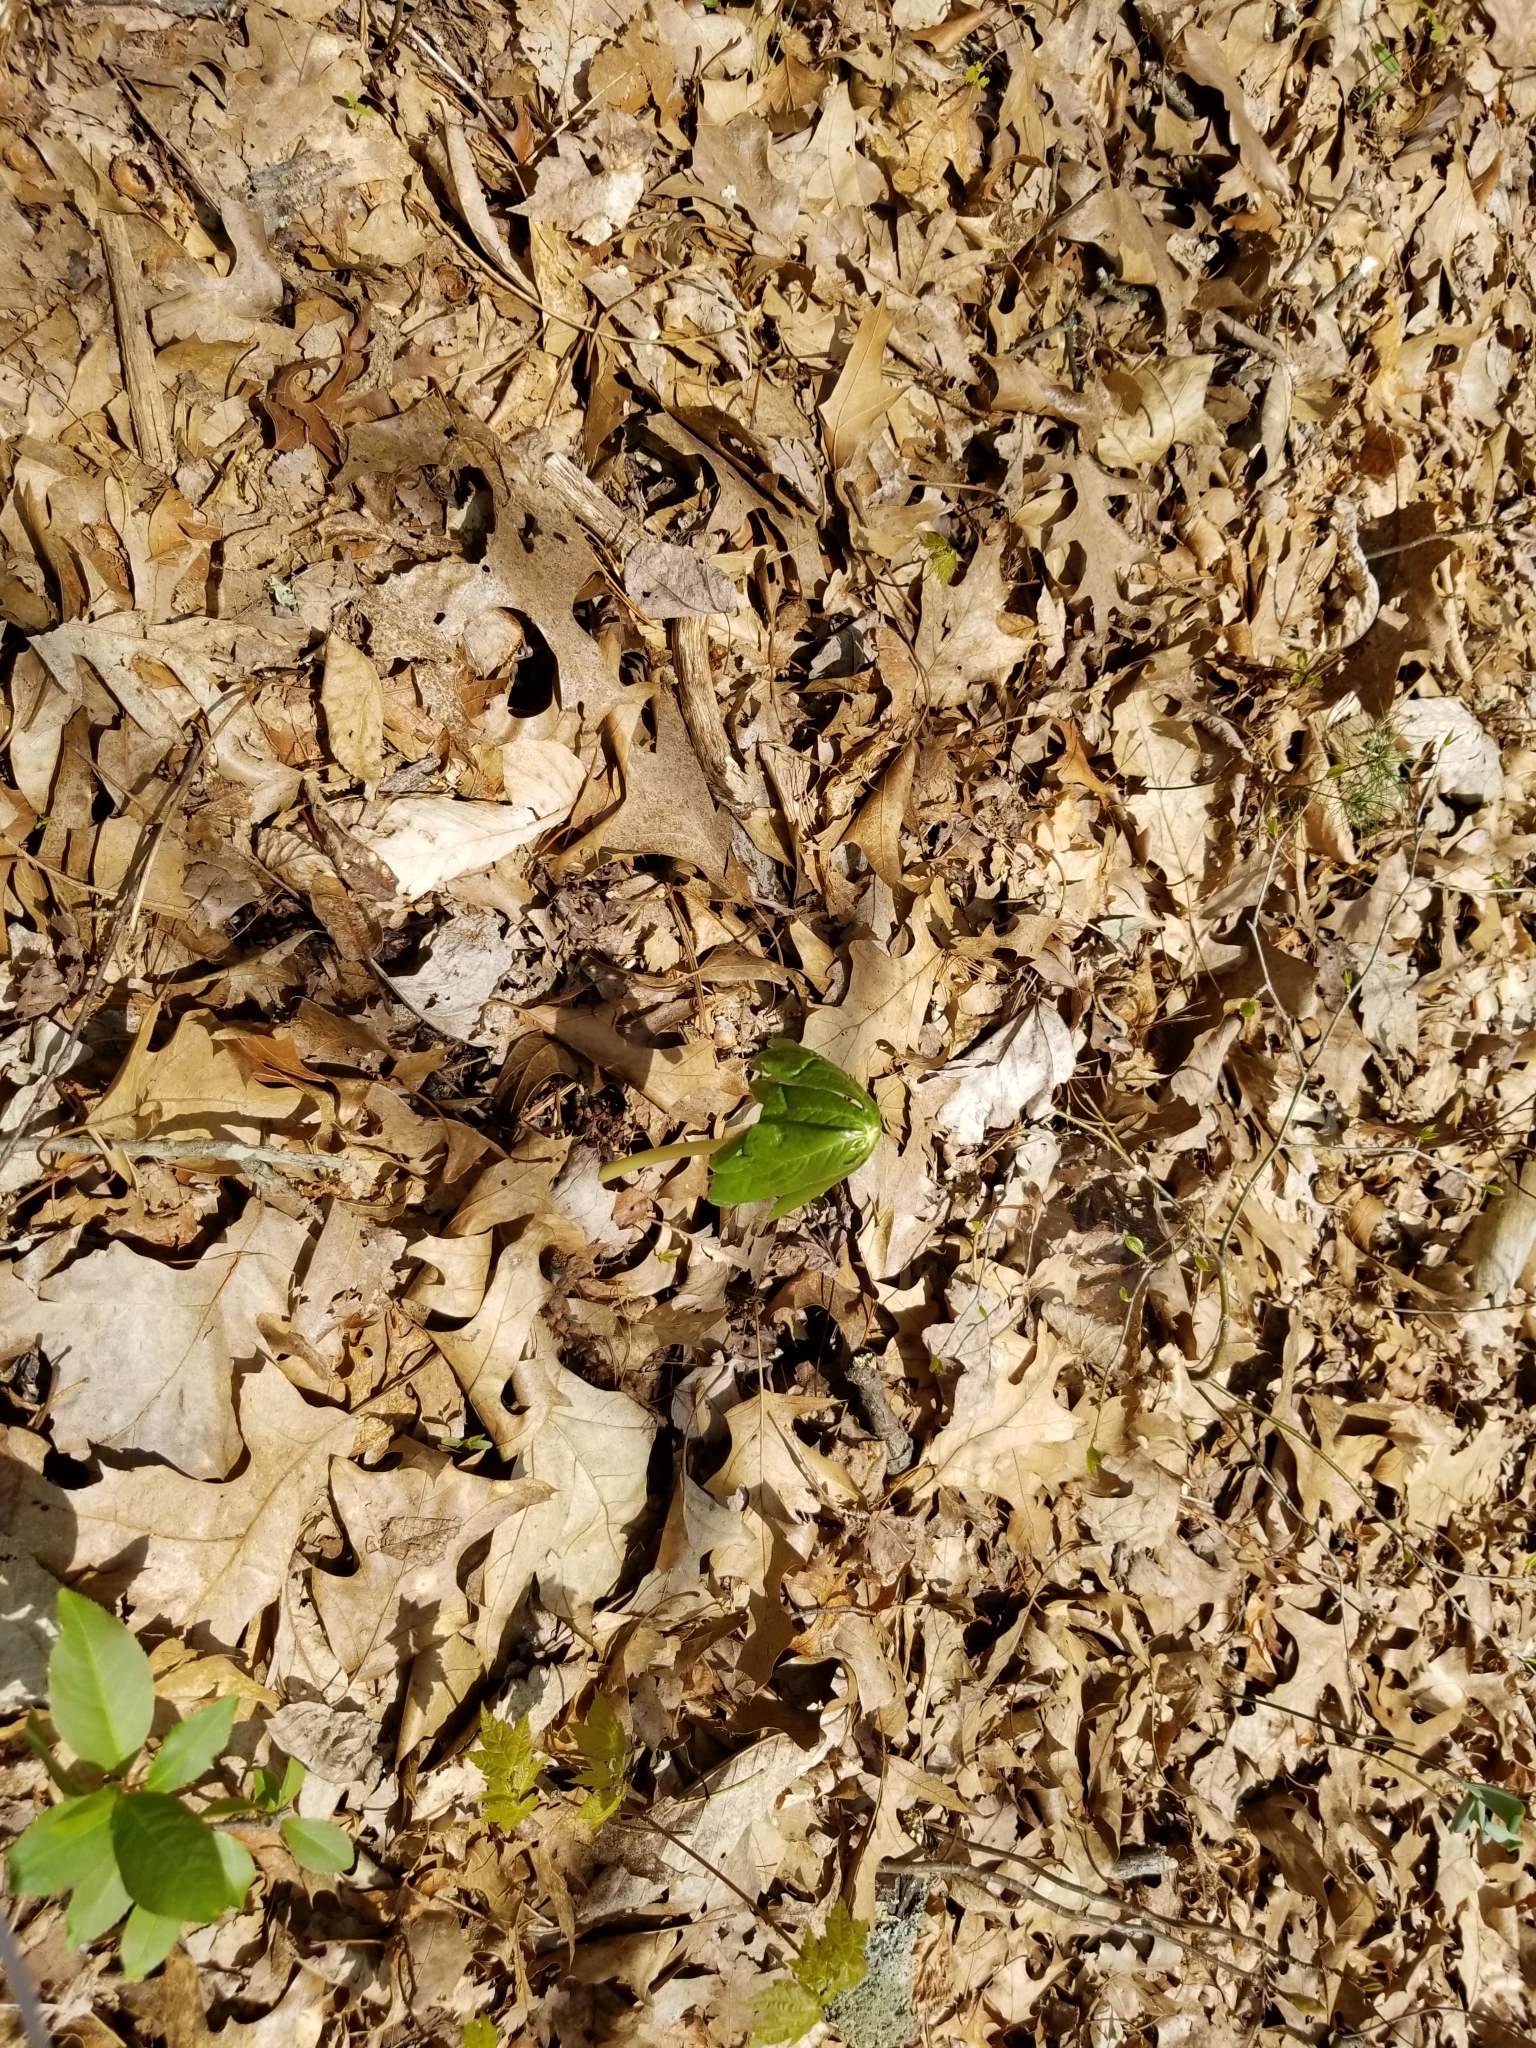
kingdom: Plantae
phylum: Tracheophyta
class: Magnoliopsida
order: Ranunculales
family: Berberidaceae
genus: Podophyllum
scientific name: Podophyllum peltatum
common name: Wild mandrake
